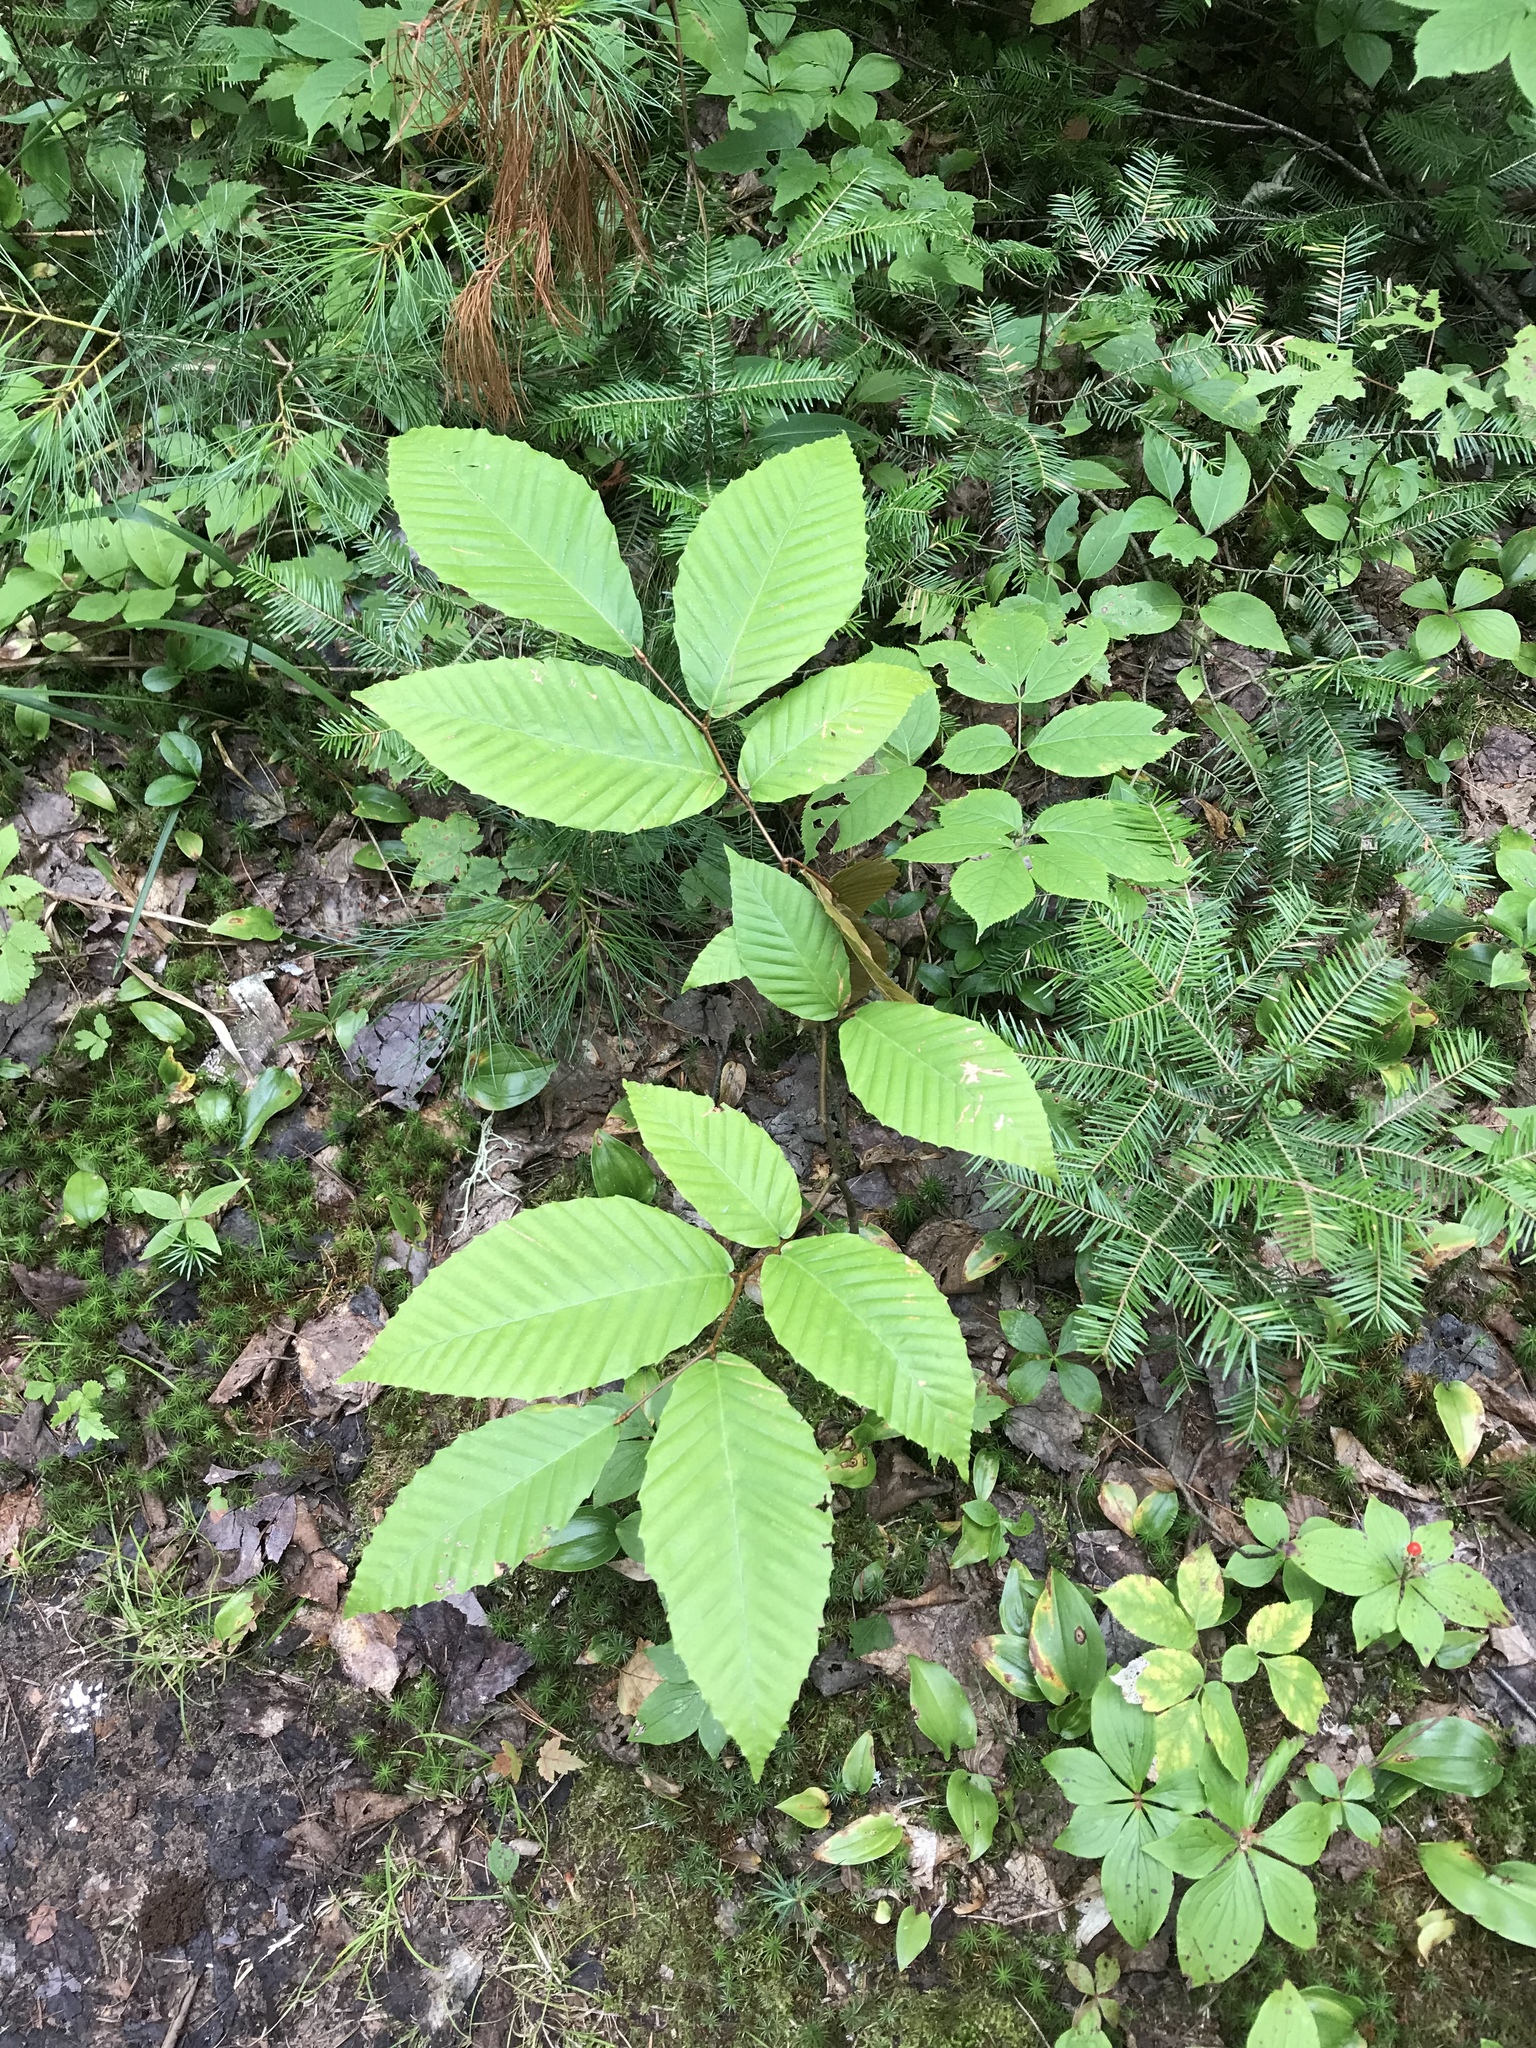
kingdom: Plantae
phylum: Tracheophyta
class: Magnoliopsida
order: Fagales
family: Fagaceae
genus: Fagus
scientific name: Fagus grandifolia
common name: American beech
